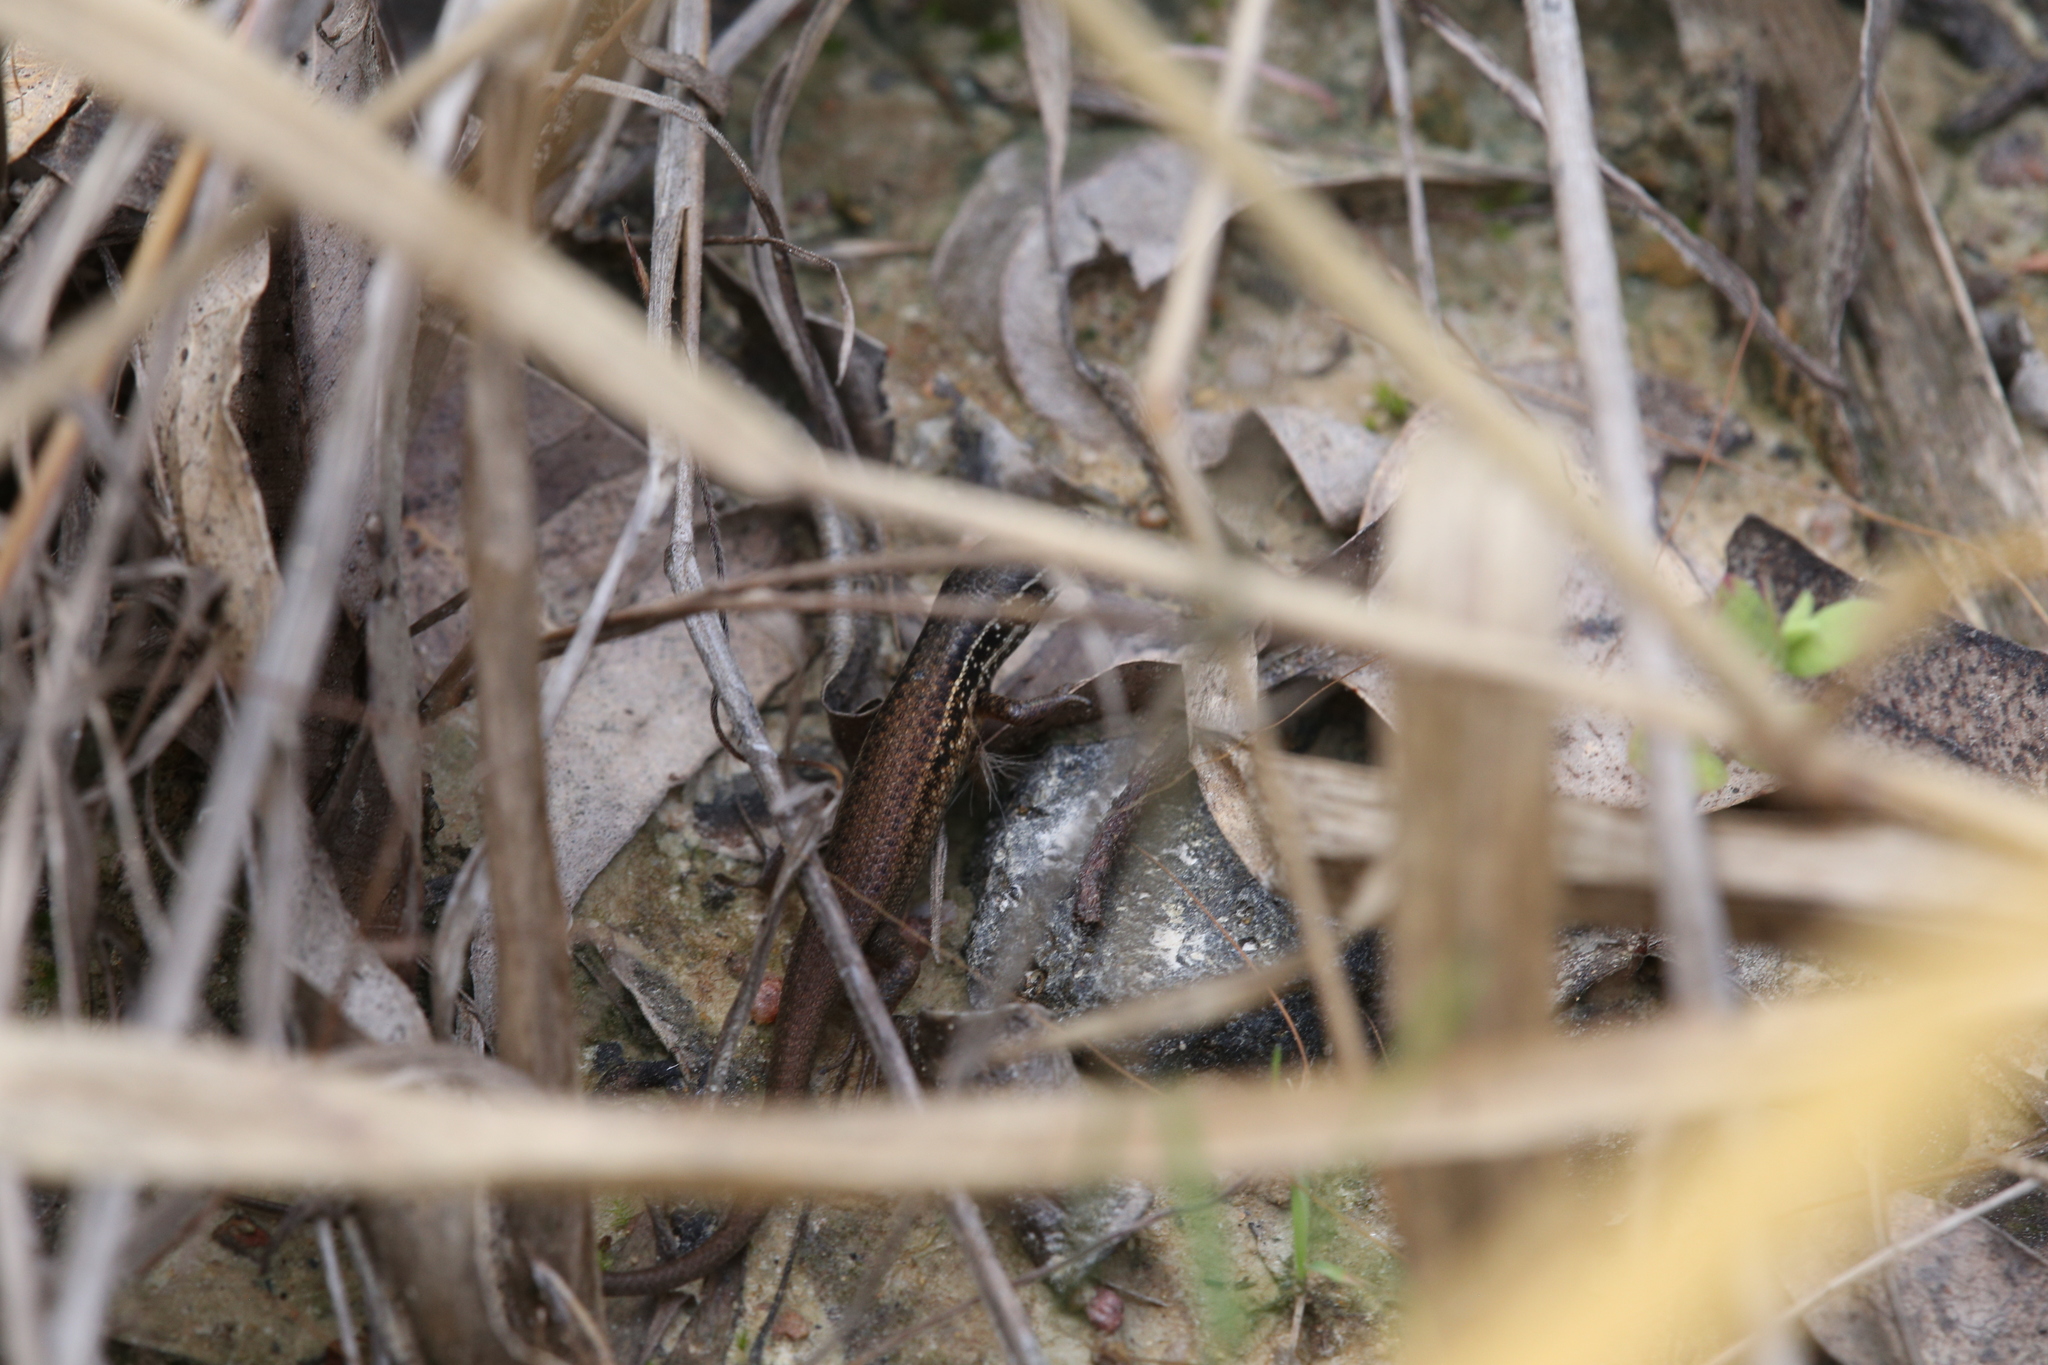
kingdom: Animalia
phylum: Chordata
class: Squamata
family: Scincidae
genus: Carlia
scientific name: Carlia rostralis
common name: Black-throated rainbow-skink
